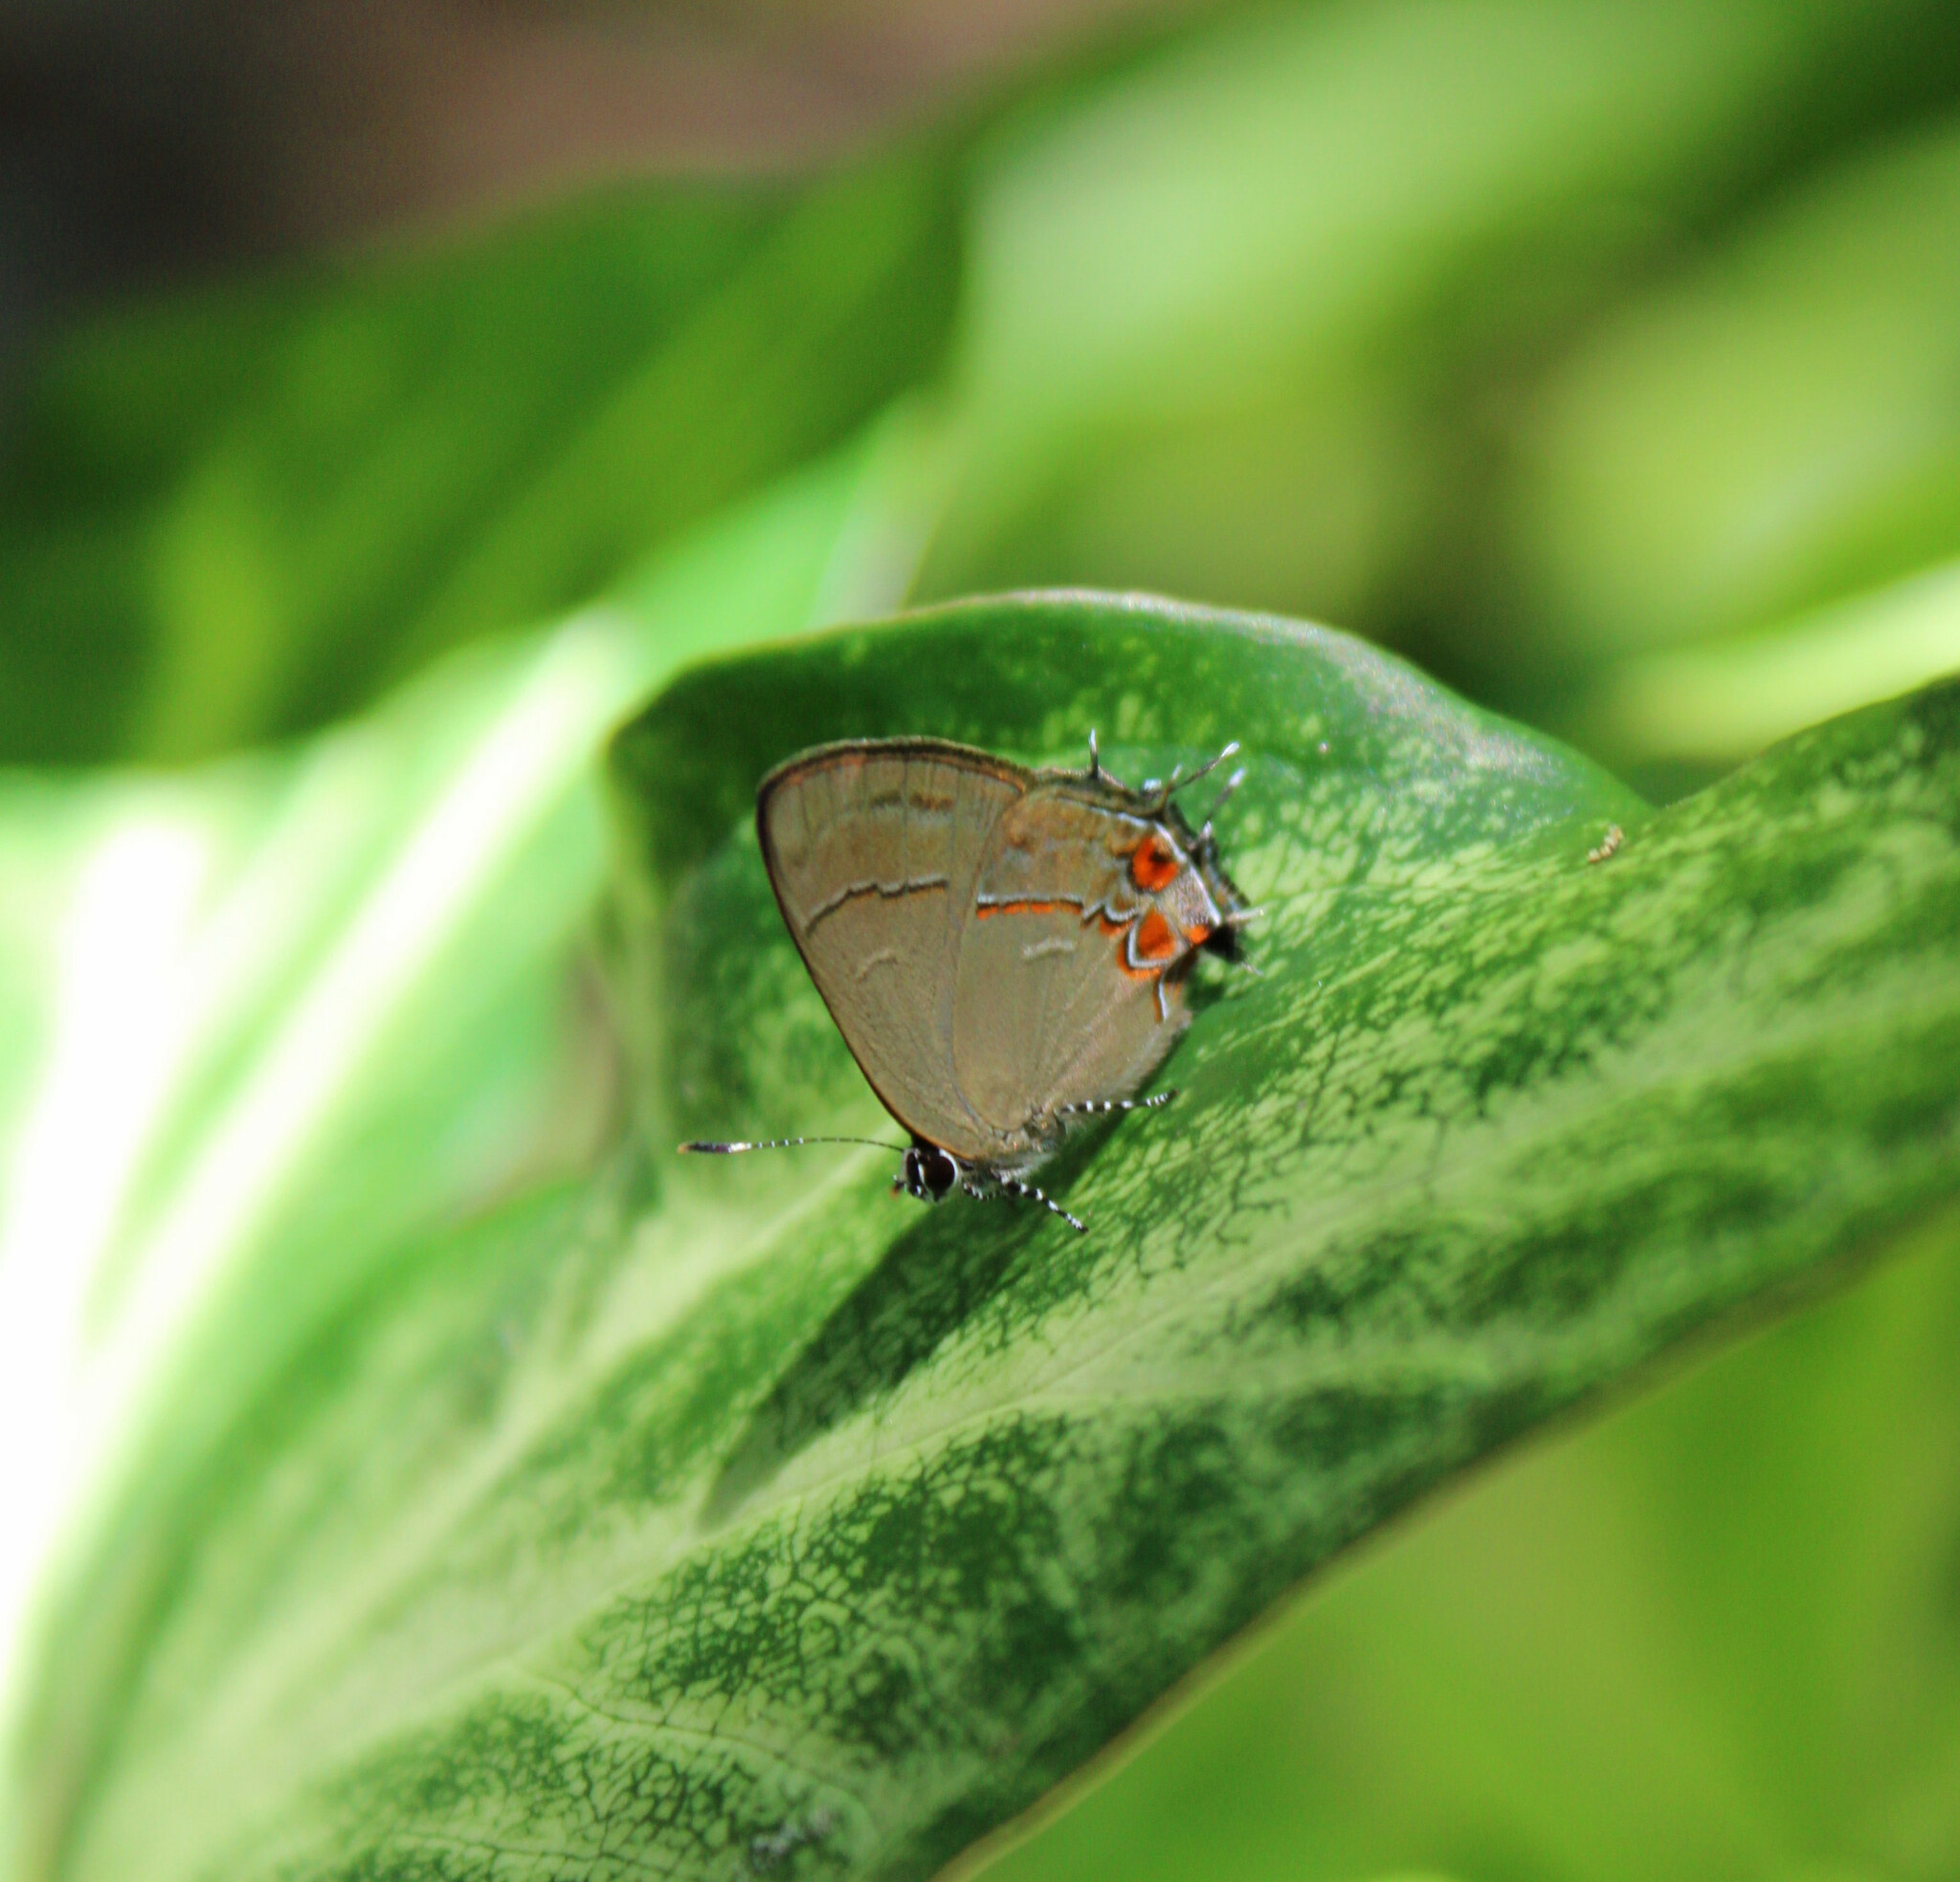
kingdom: Animalia
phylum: Arthropoda
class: Insecta
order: Lepidoptera
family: Lycaenidae
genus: Calycopis
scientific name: Calycopis bellera
